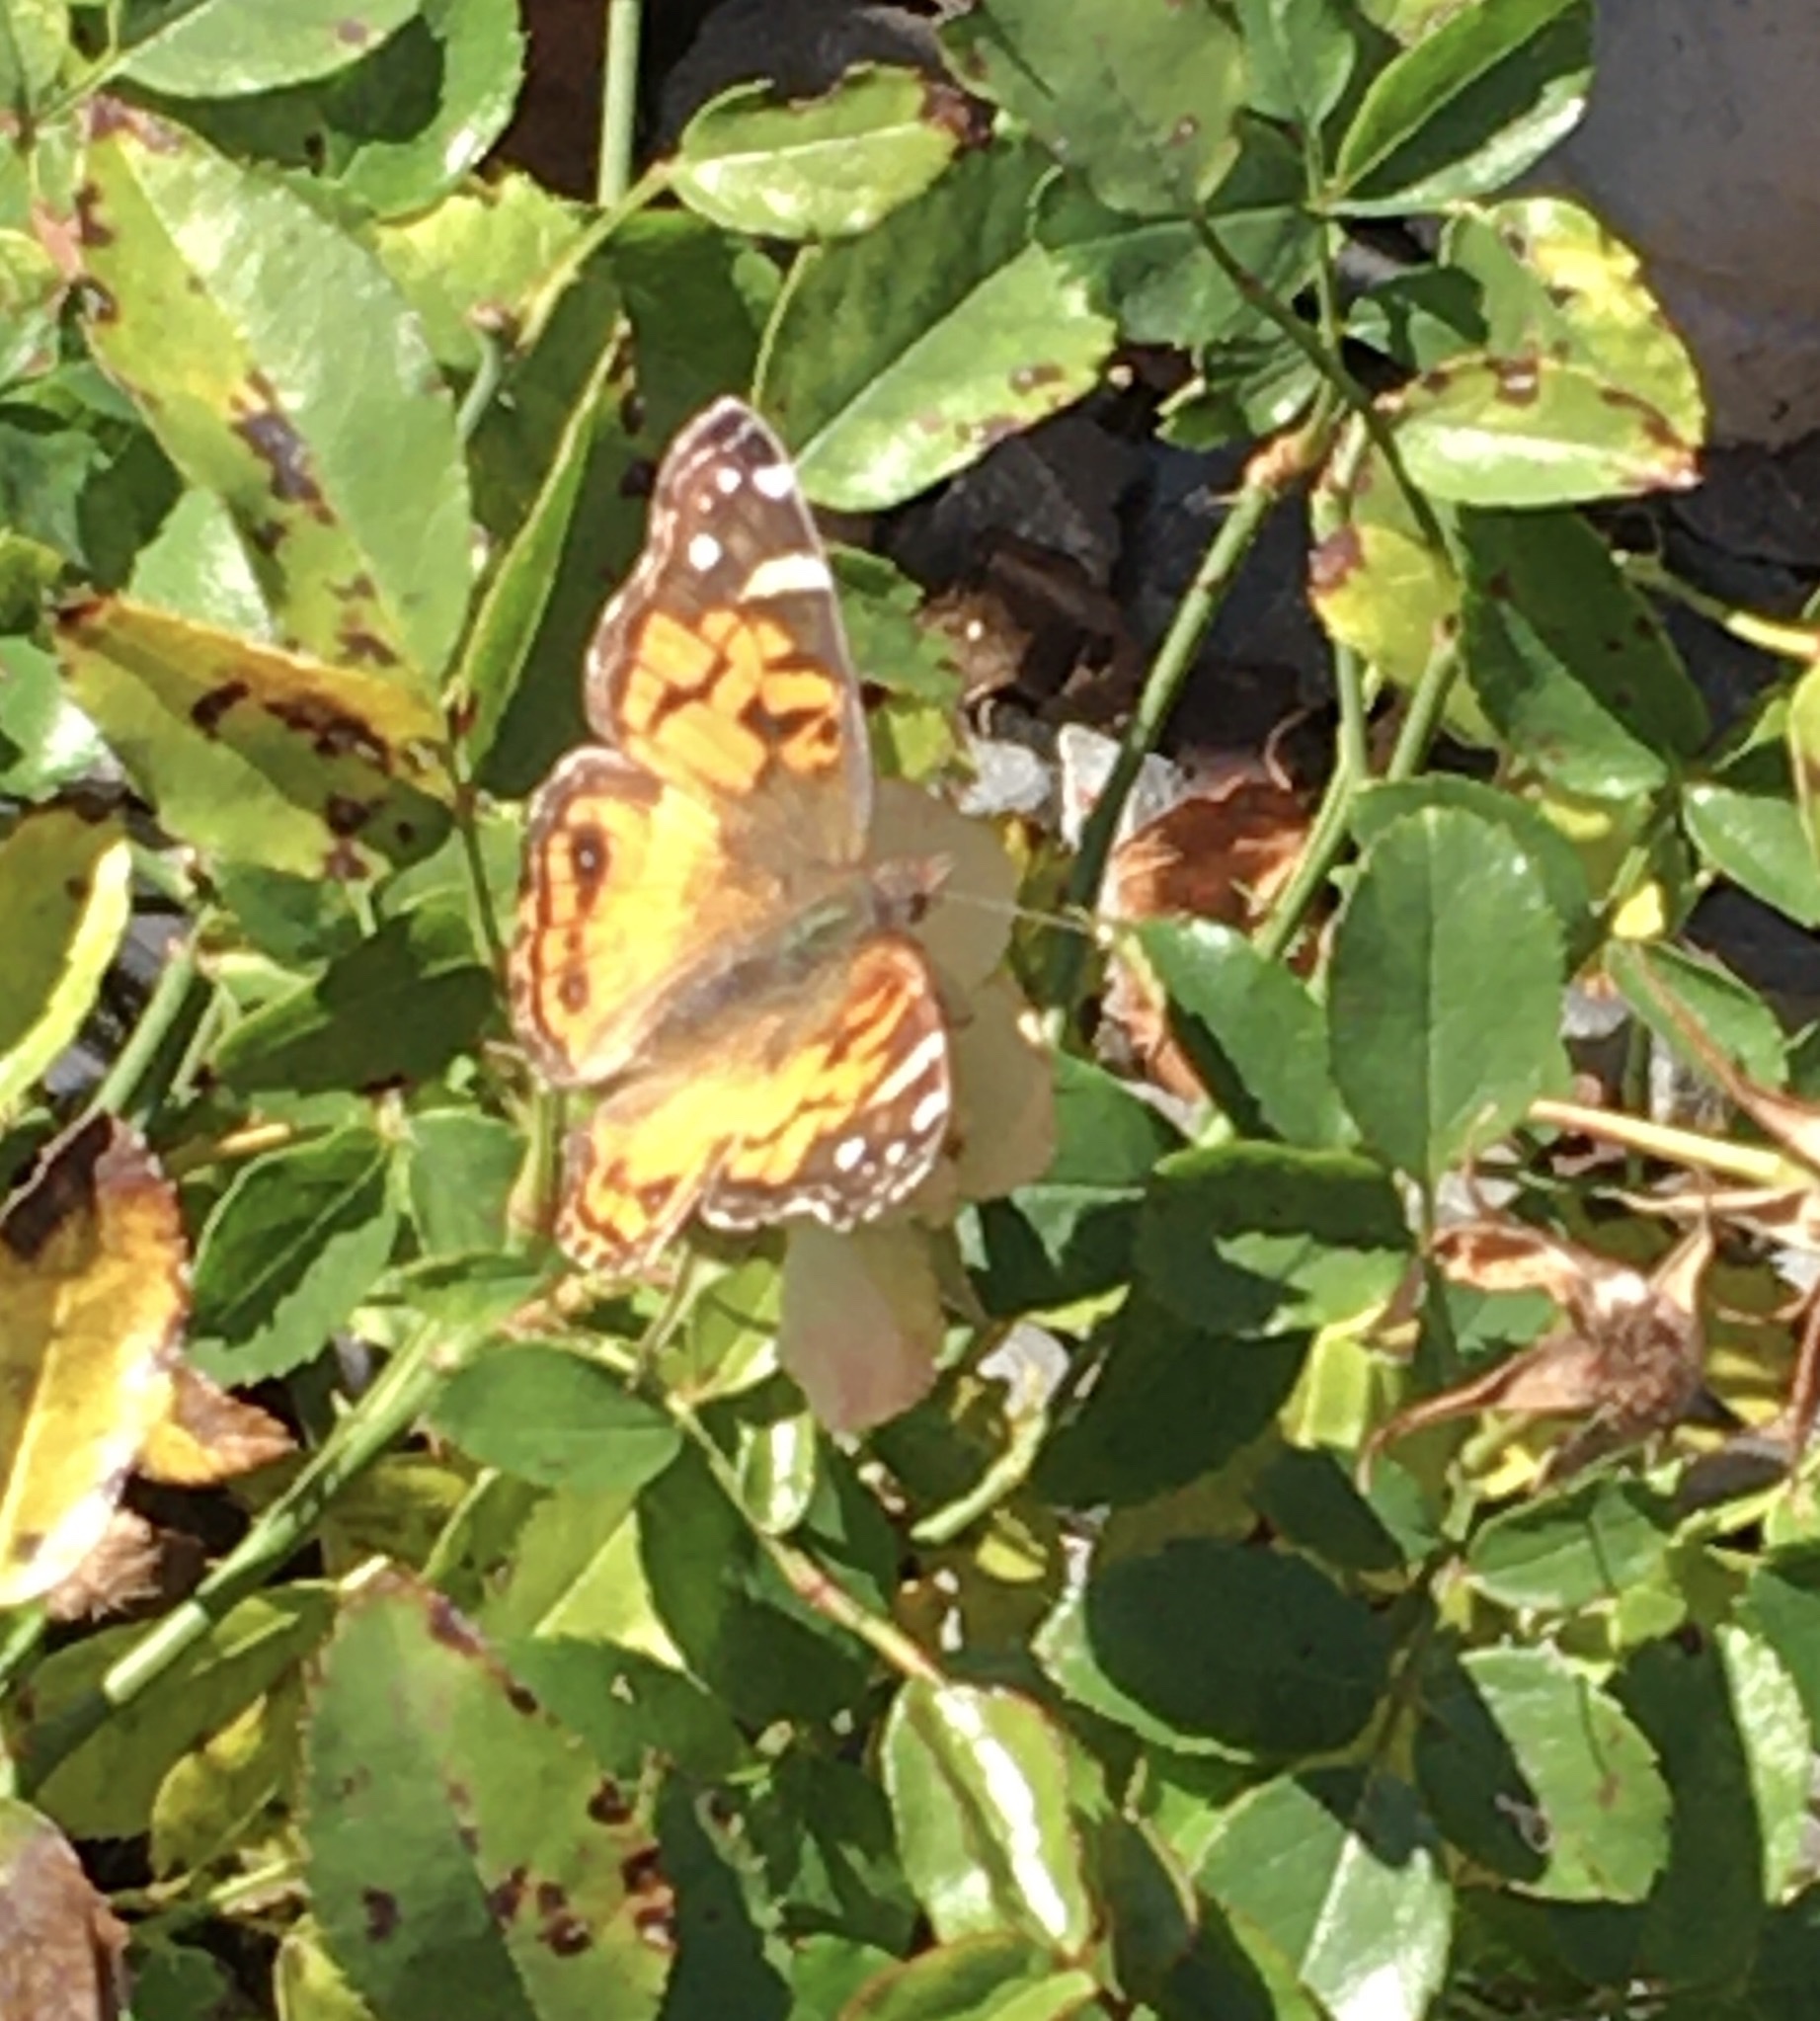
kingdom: Animalia
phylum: Arthropoda
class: Insecta
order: Lepidoptera
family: Nymphalidae
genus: Vanessa
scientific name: Vanessa virginiensis
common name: American lady
